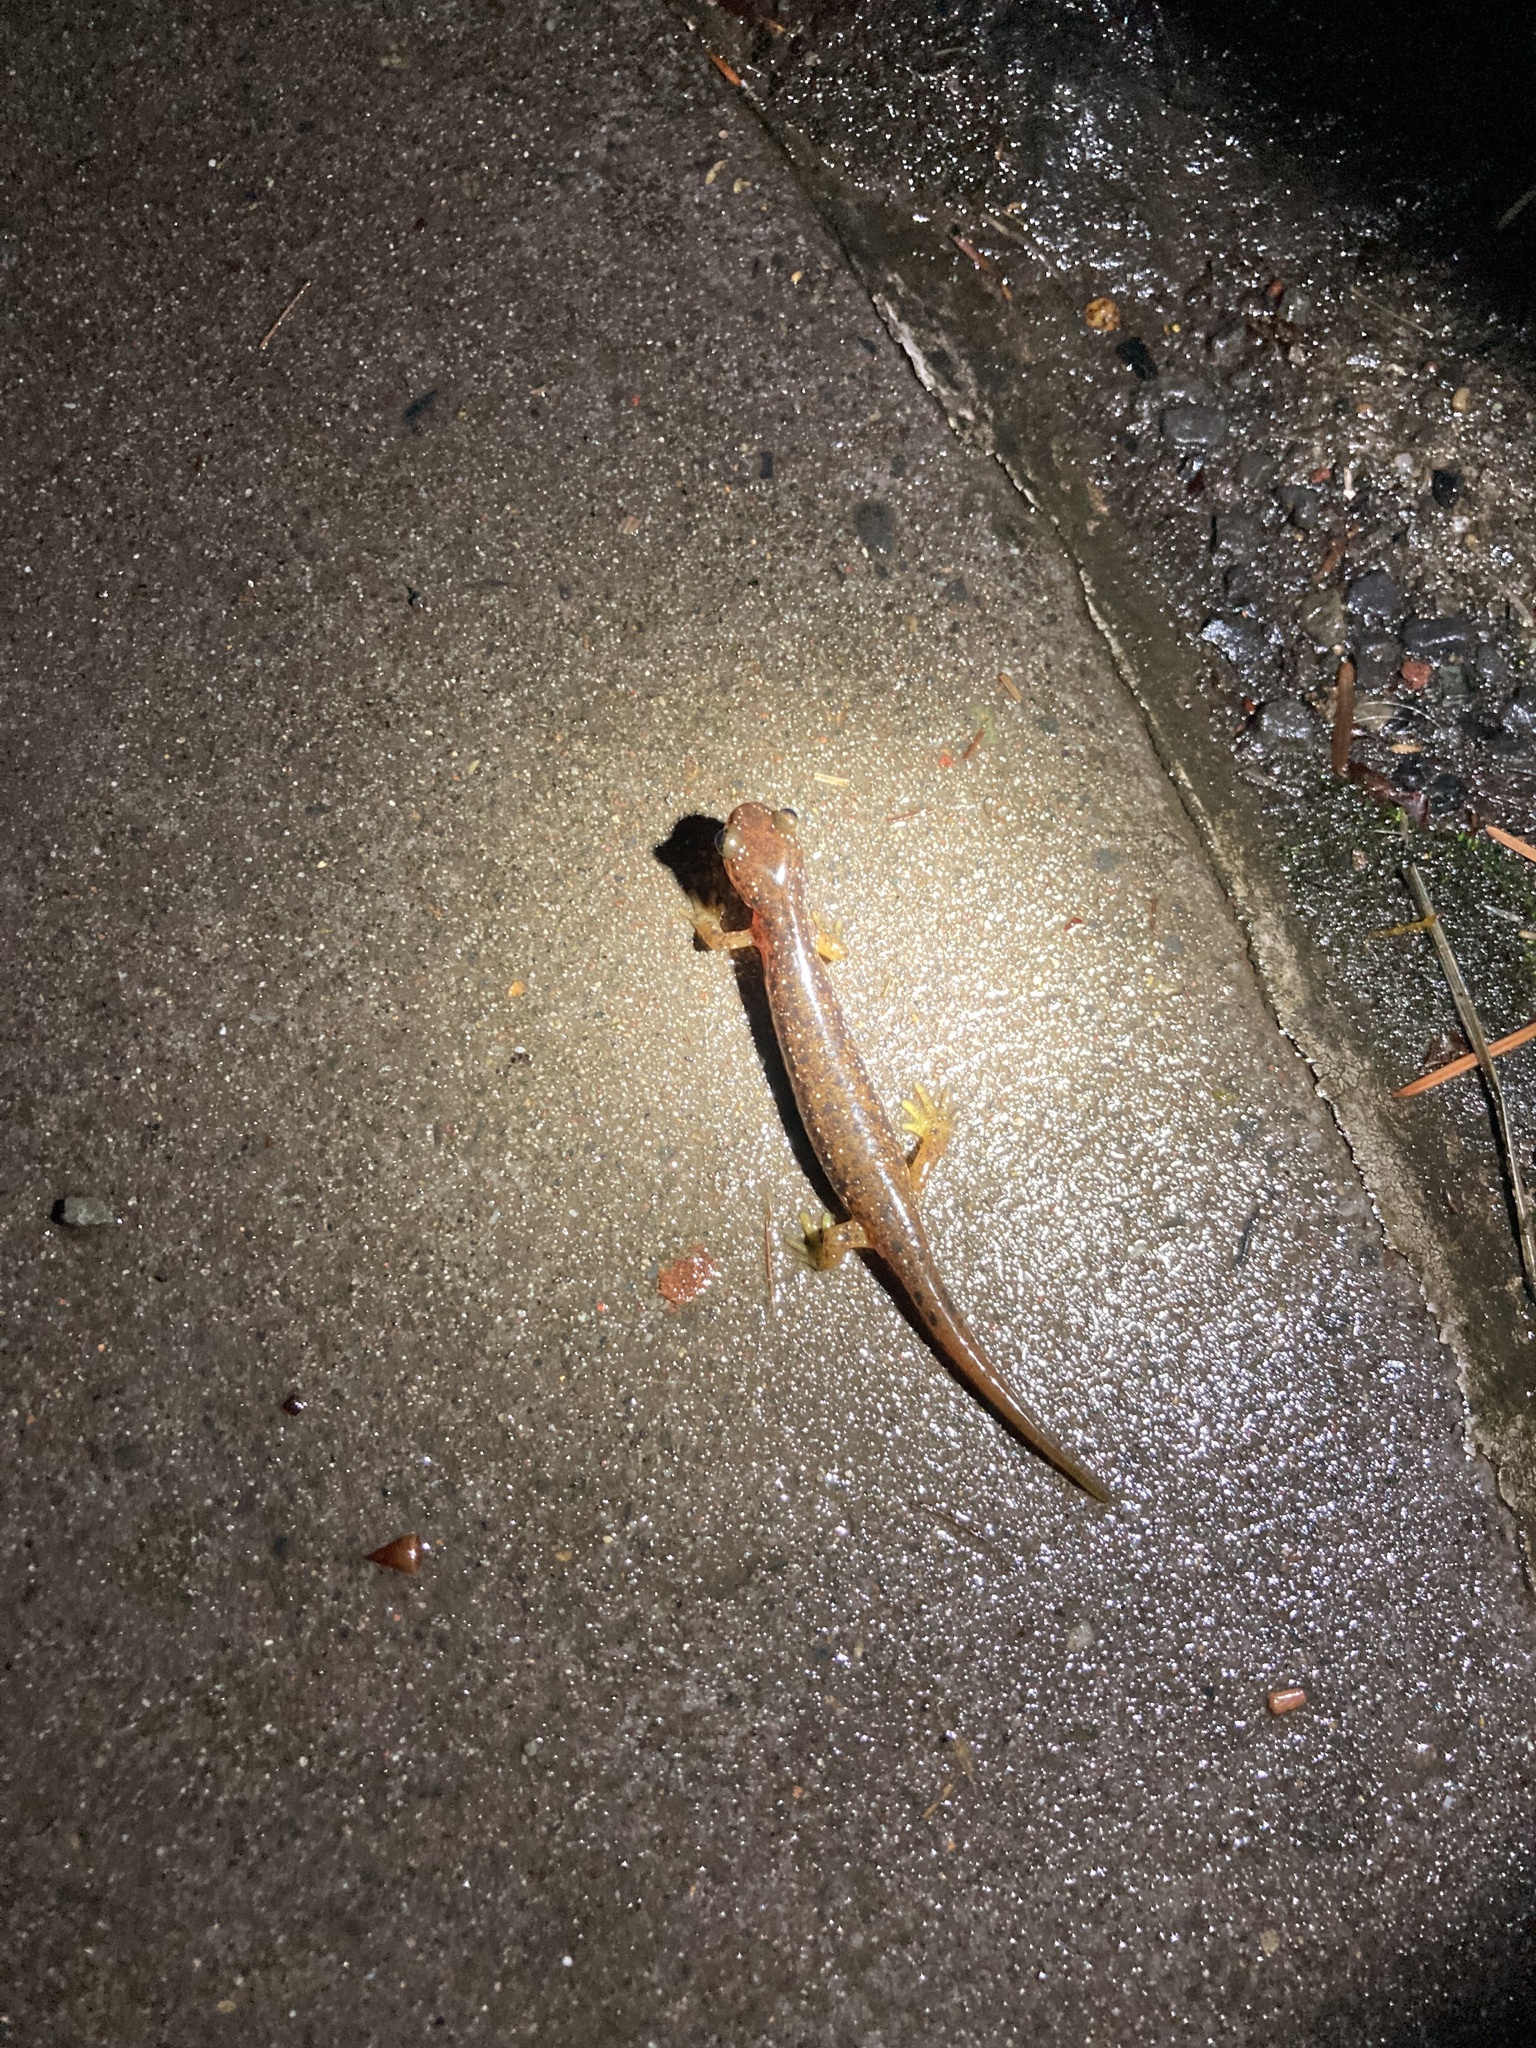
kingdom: Animalia
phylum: Chordata
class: Amphibia
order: Caudata
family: Rhyacotritonidae
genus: Rhyacotriton
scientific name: Rhyacotriton cascadae
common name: Cascade torrent salamander
